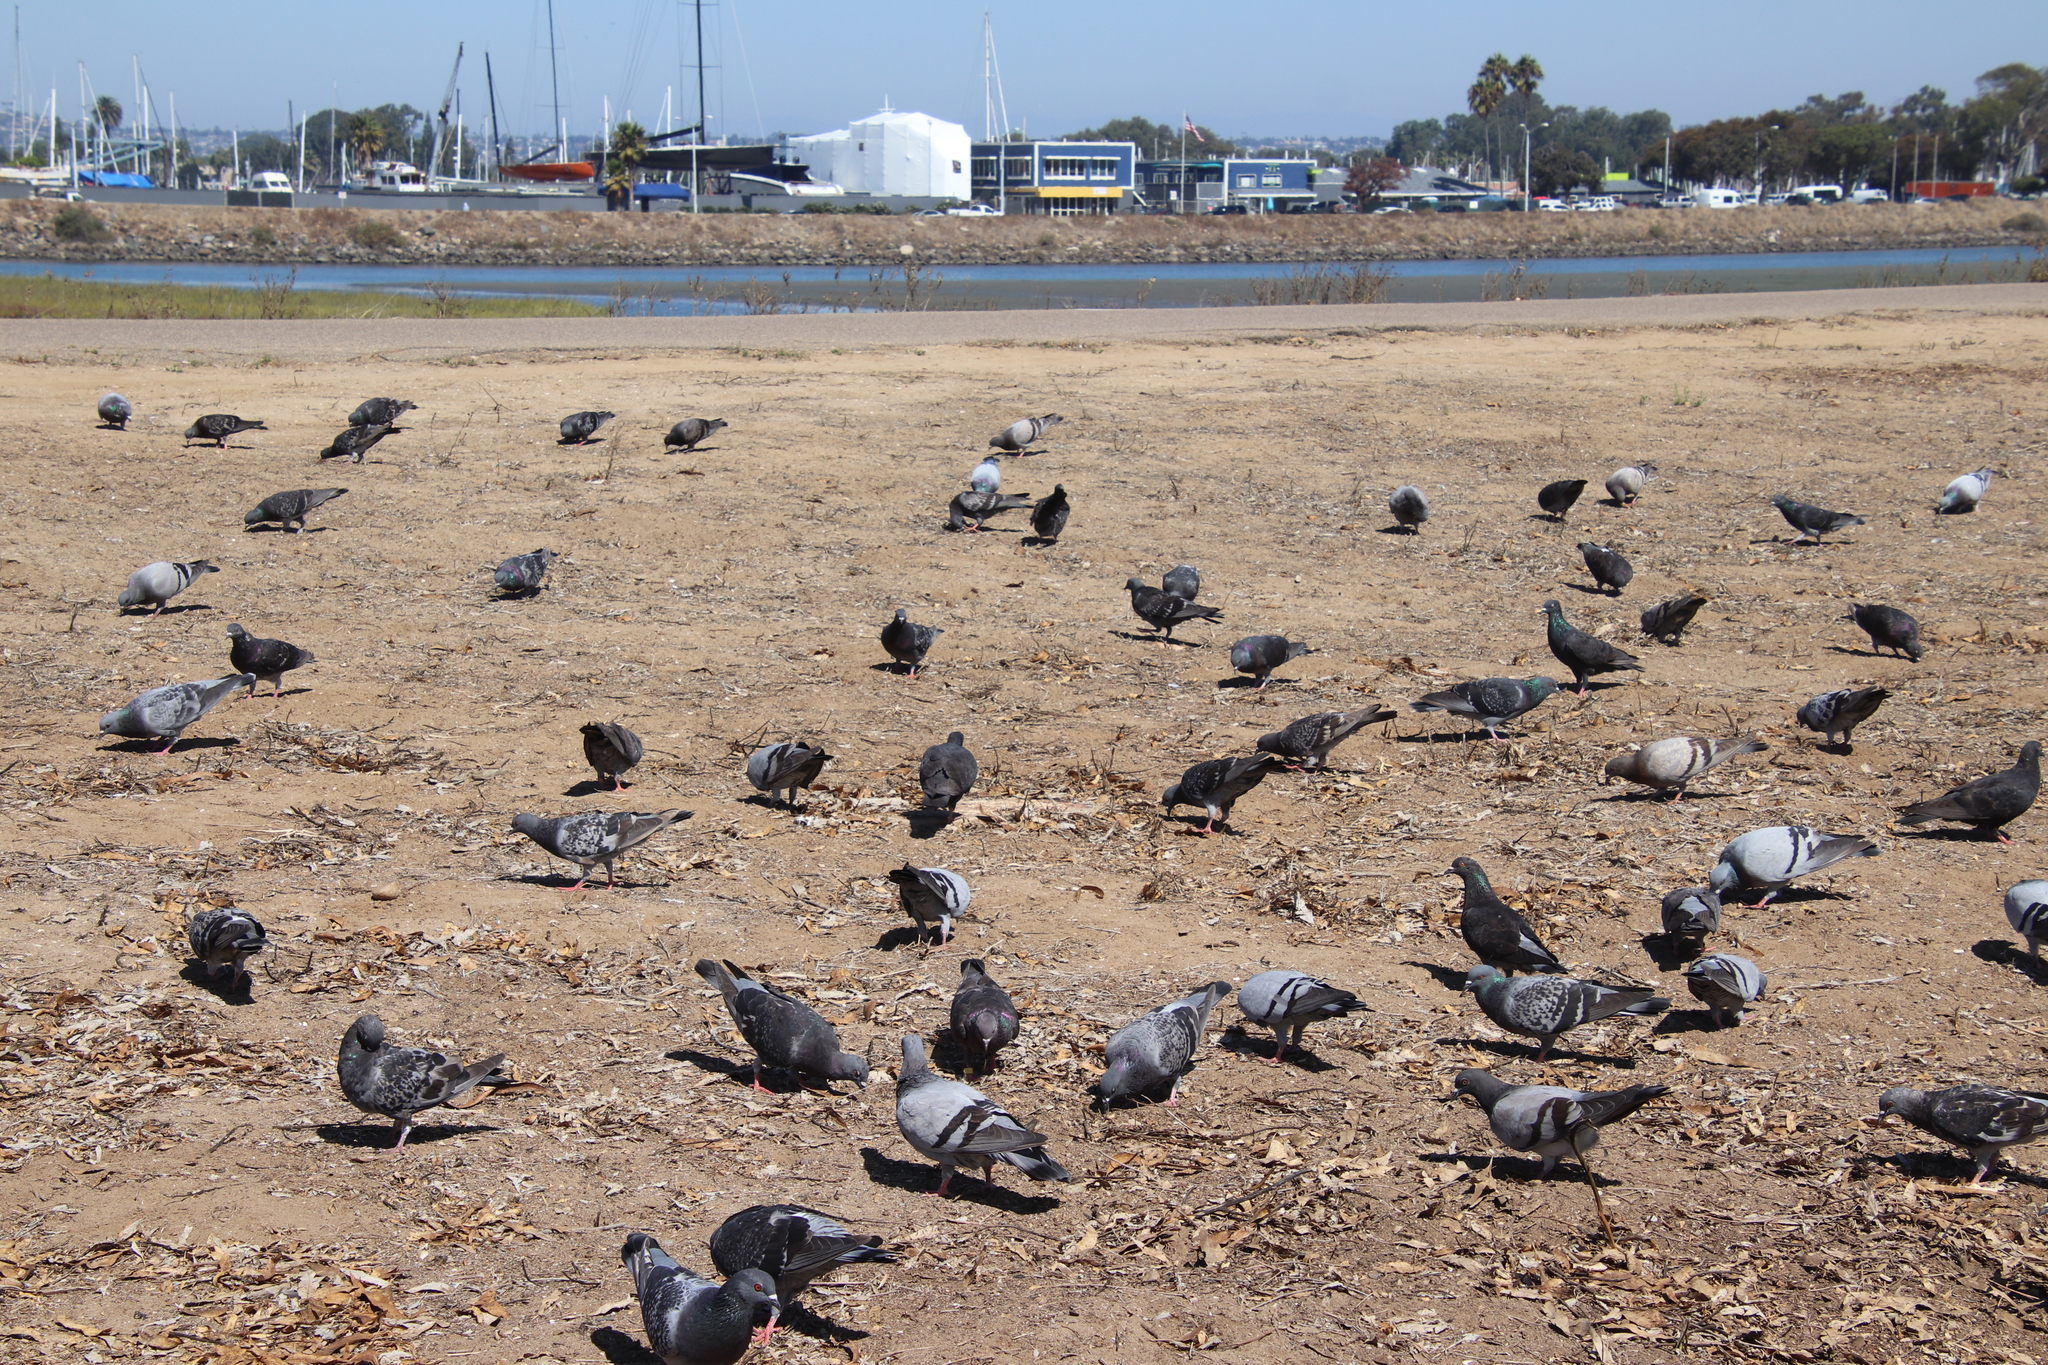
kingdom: Animalia
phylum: Chordata
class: Aves
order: Columbiformes
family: Columbidae
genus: Columba
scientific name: Columba livia
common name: Rock pigeon
